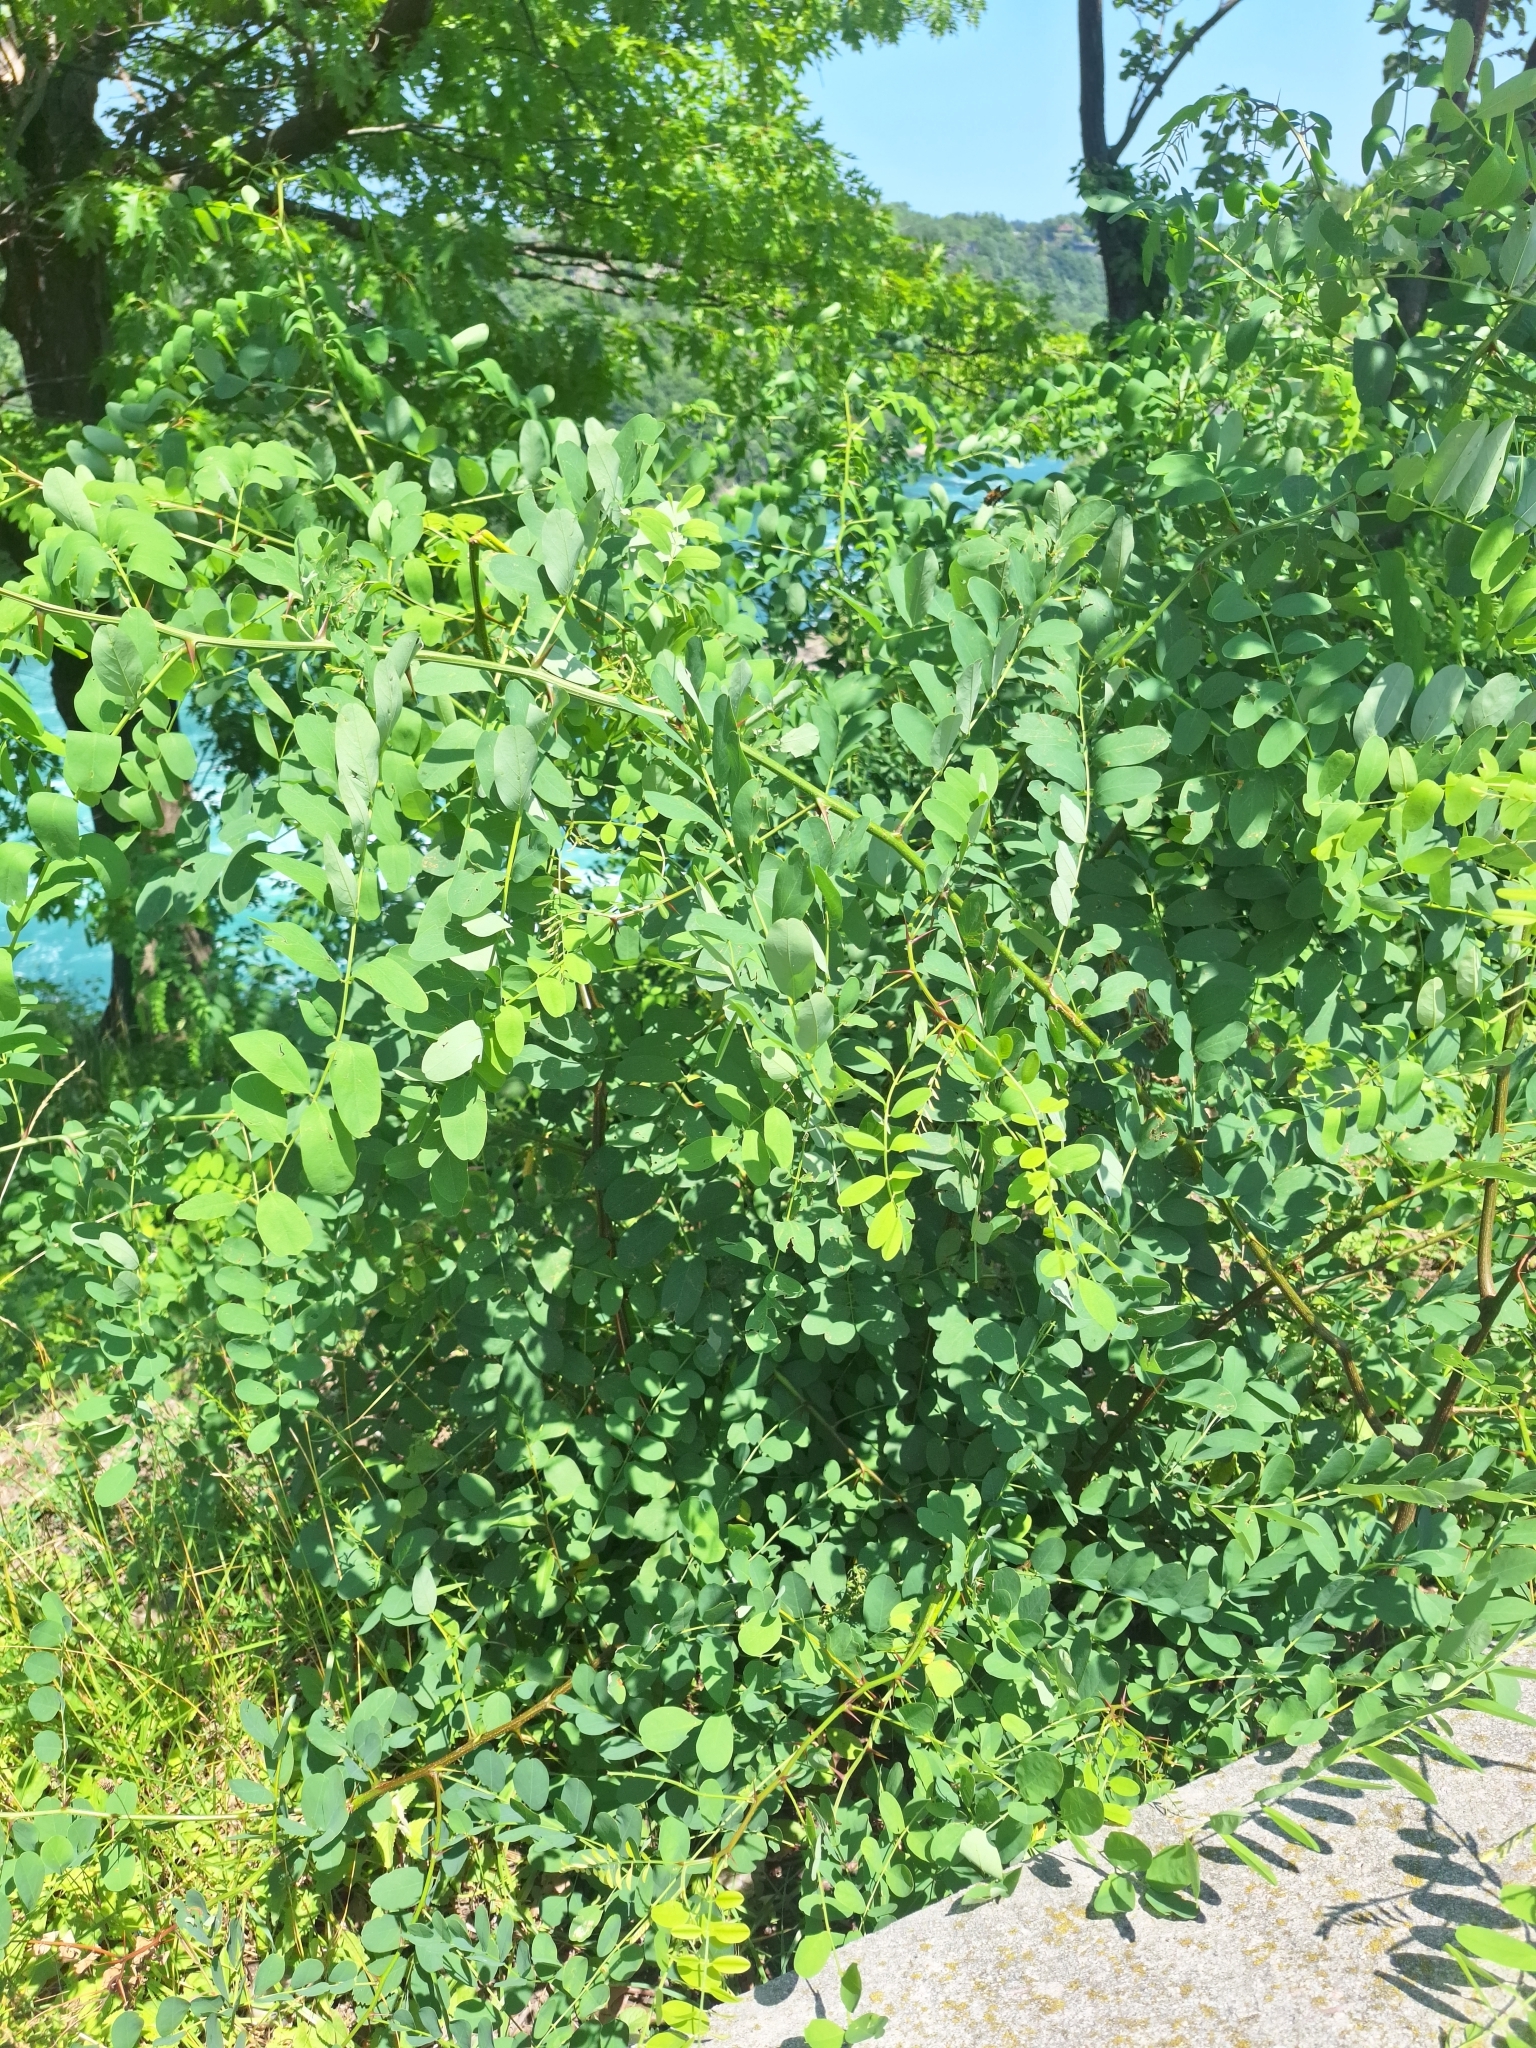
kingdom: Plantae
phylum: Tracheophyta
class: Magnoliopsida
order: Fabales
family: Fabaceae
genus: Robinia
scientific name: Robinia pseudoacacia
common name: Black locust
